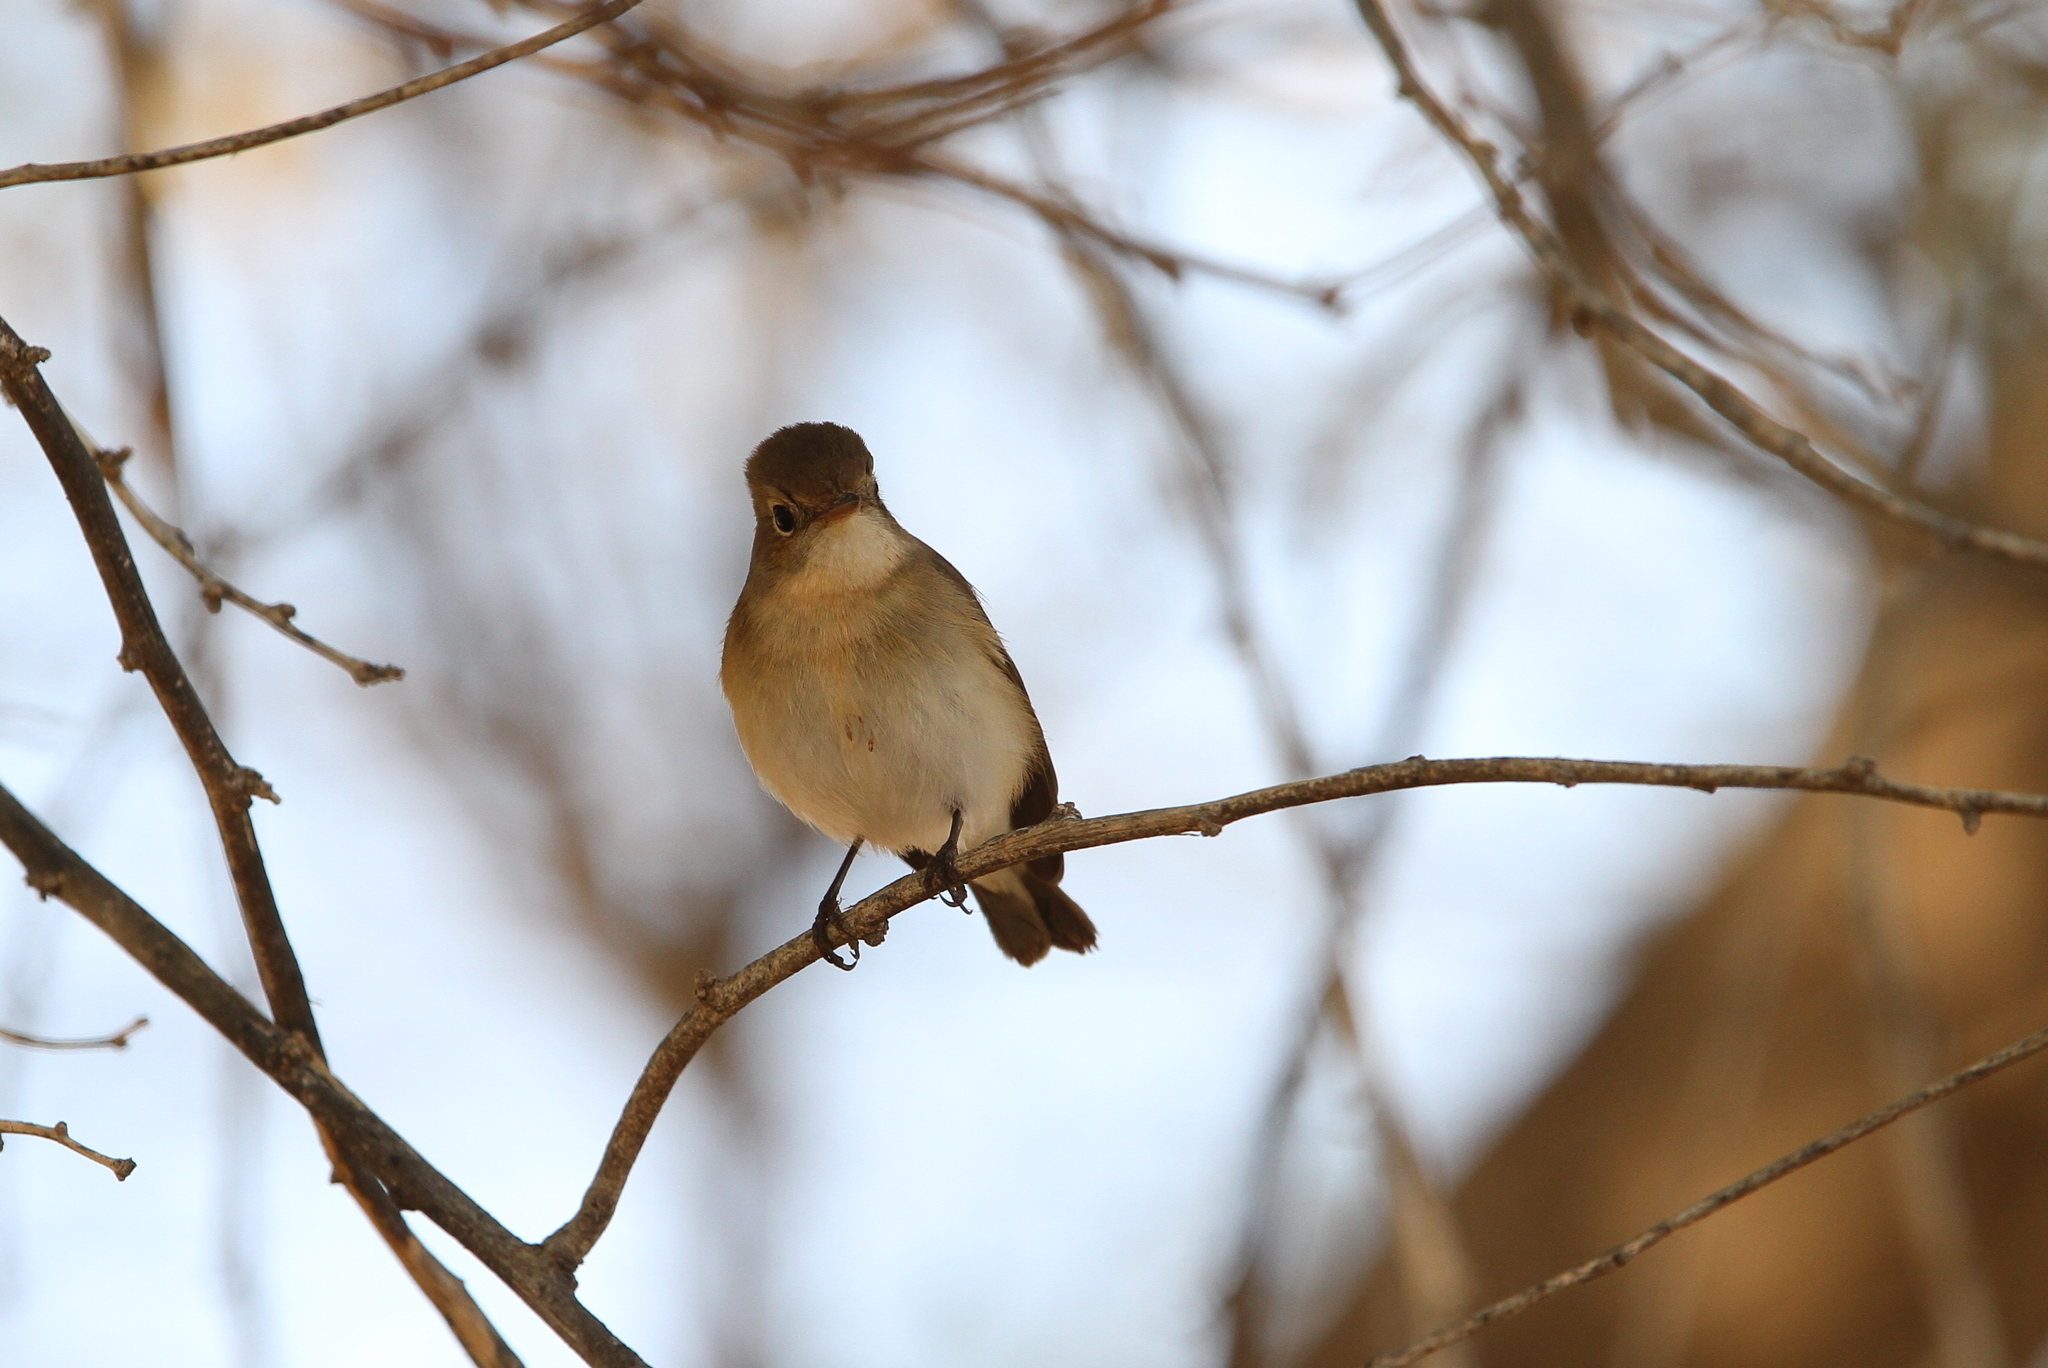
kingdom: Animalia
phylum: Chordata
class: Aves
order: Passeriformes
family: Muscicapidae
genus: Ficedula
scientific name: Ficedula parva
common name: Red-breasted flycatcher
